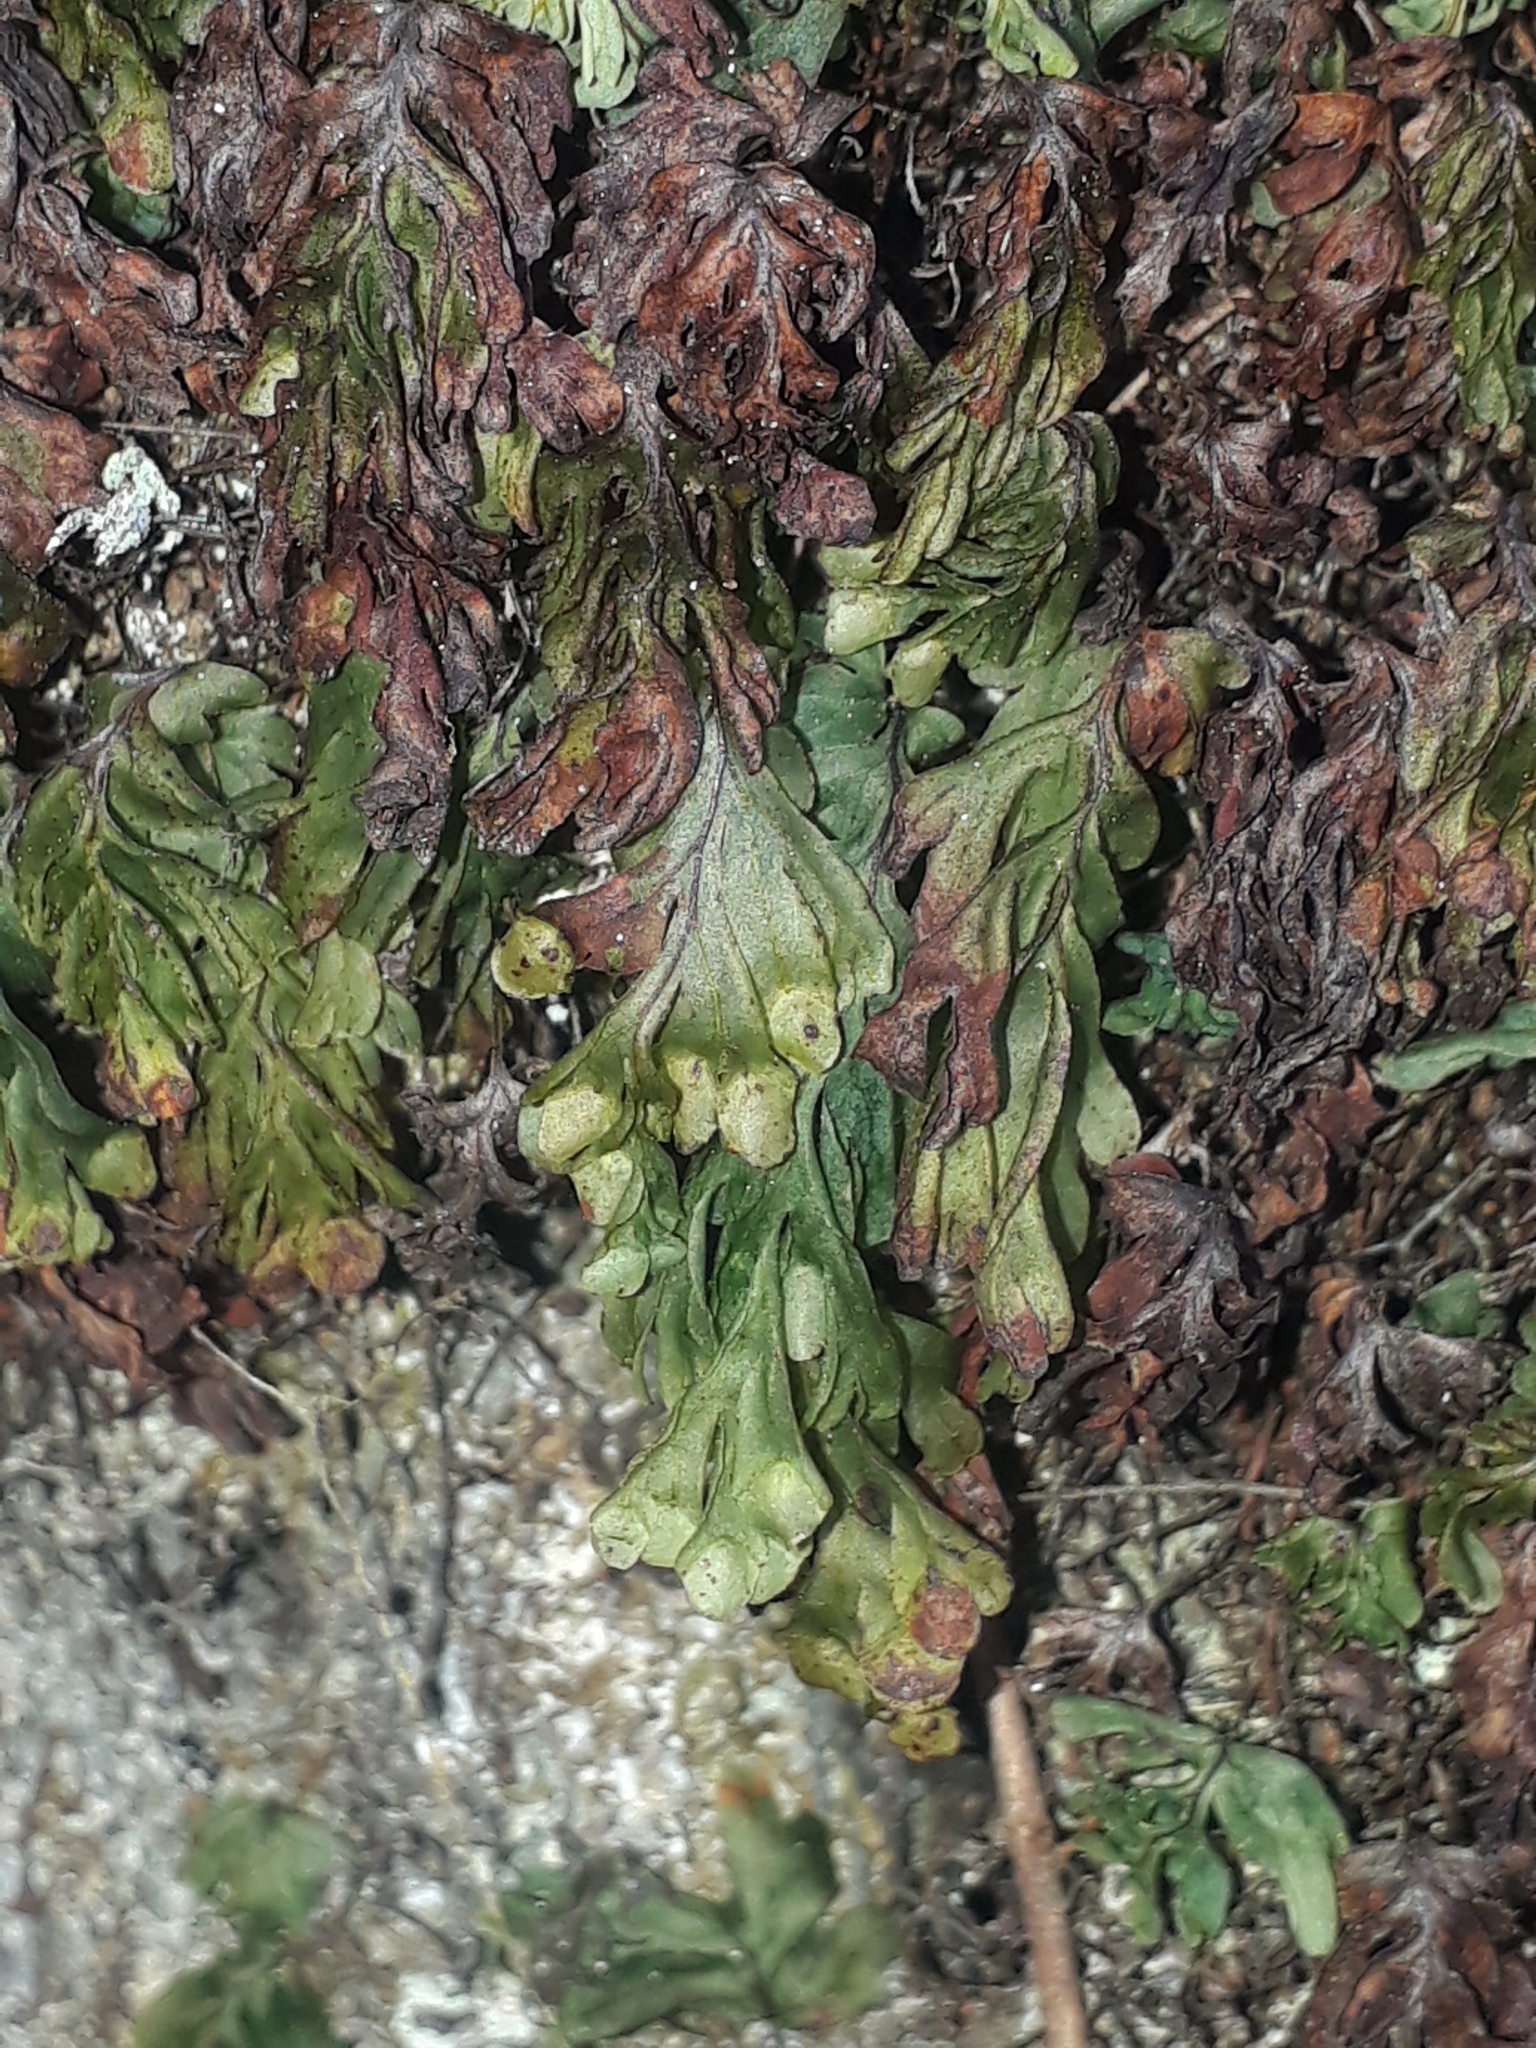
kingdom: Plantae
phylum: Tracheophyta
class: Polypodiopsida
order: Hymenophyllales
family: Hymenophyllaceae
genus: Hymenophyllum
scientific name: Hymenophyllum rarum
